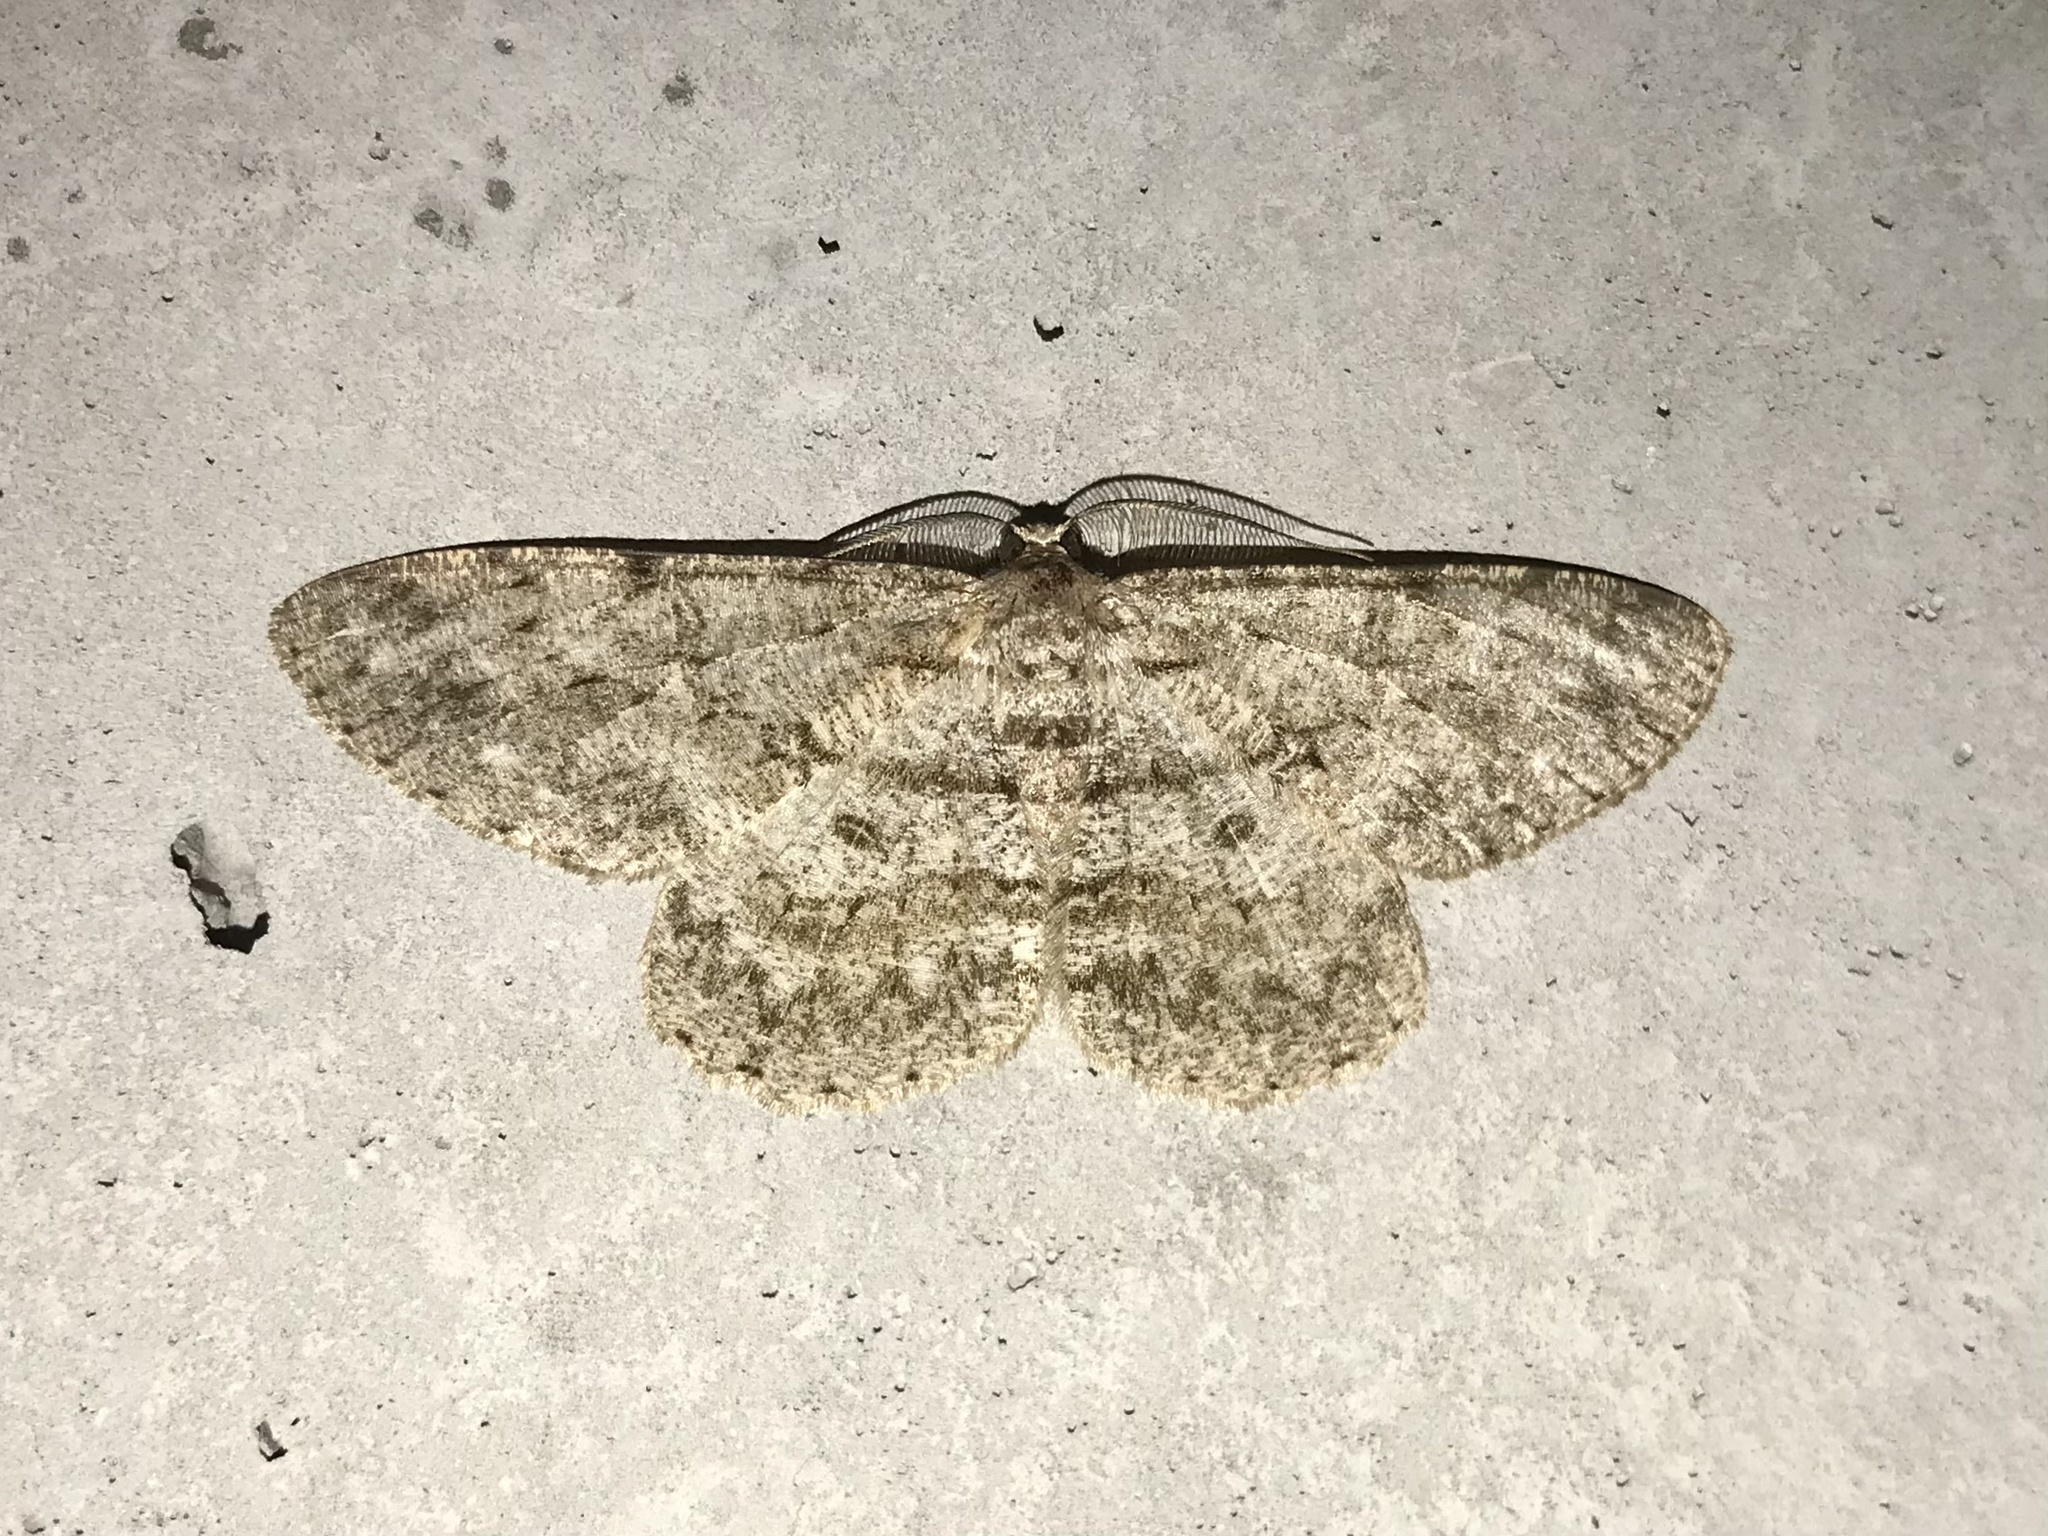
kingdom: Animalia
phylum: Arthropoda
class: Insecta
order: Lepidoptera
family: Geometridae
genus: Hypomecis
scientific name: Hypomecis punctinalis
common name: Pale oak beauty
